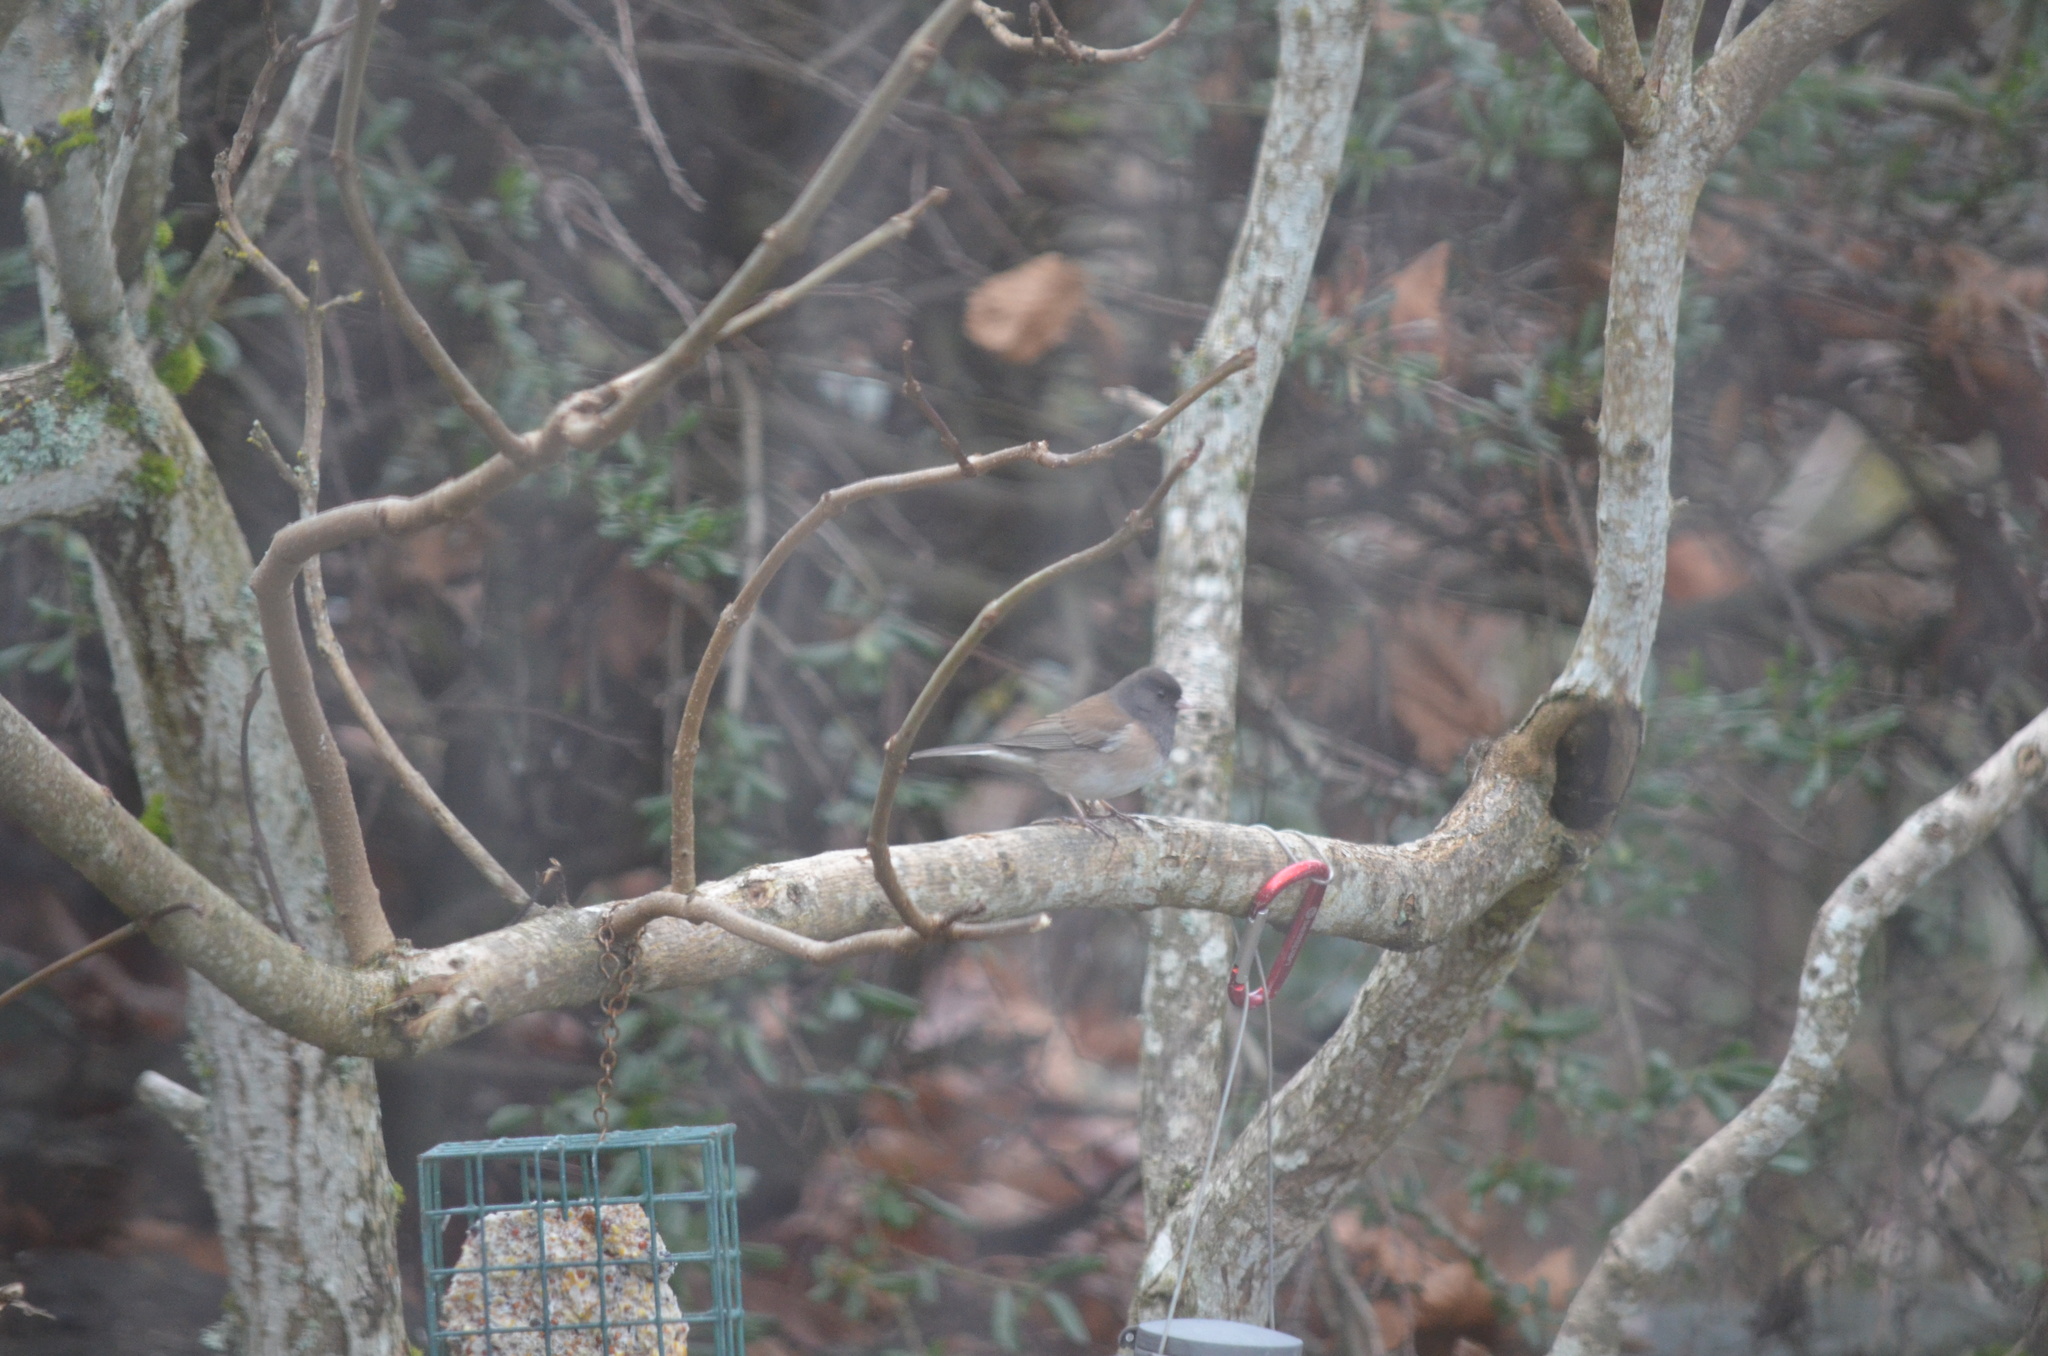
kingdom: Animalia
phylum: Chordata
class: Aves
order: Passeriformes
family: Passerellidae
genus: Junco
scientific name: Junco hyemalis
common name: Dark-eyed junco
